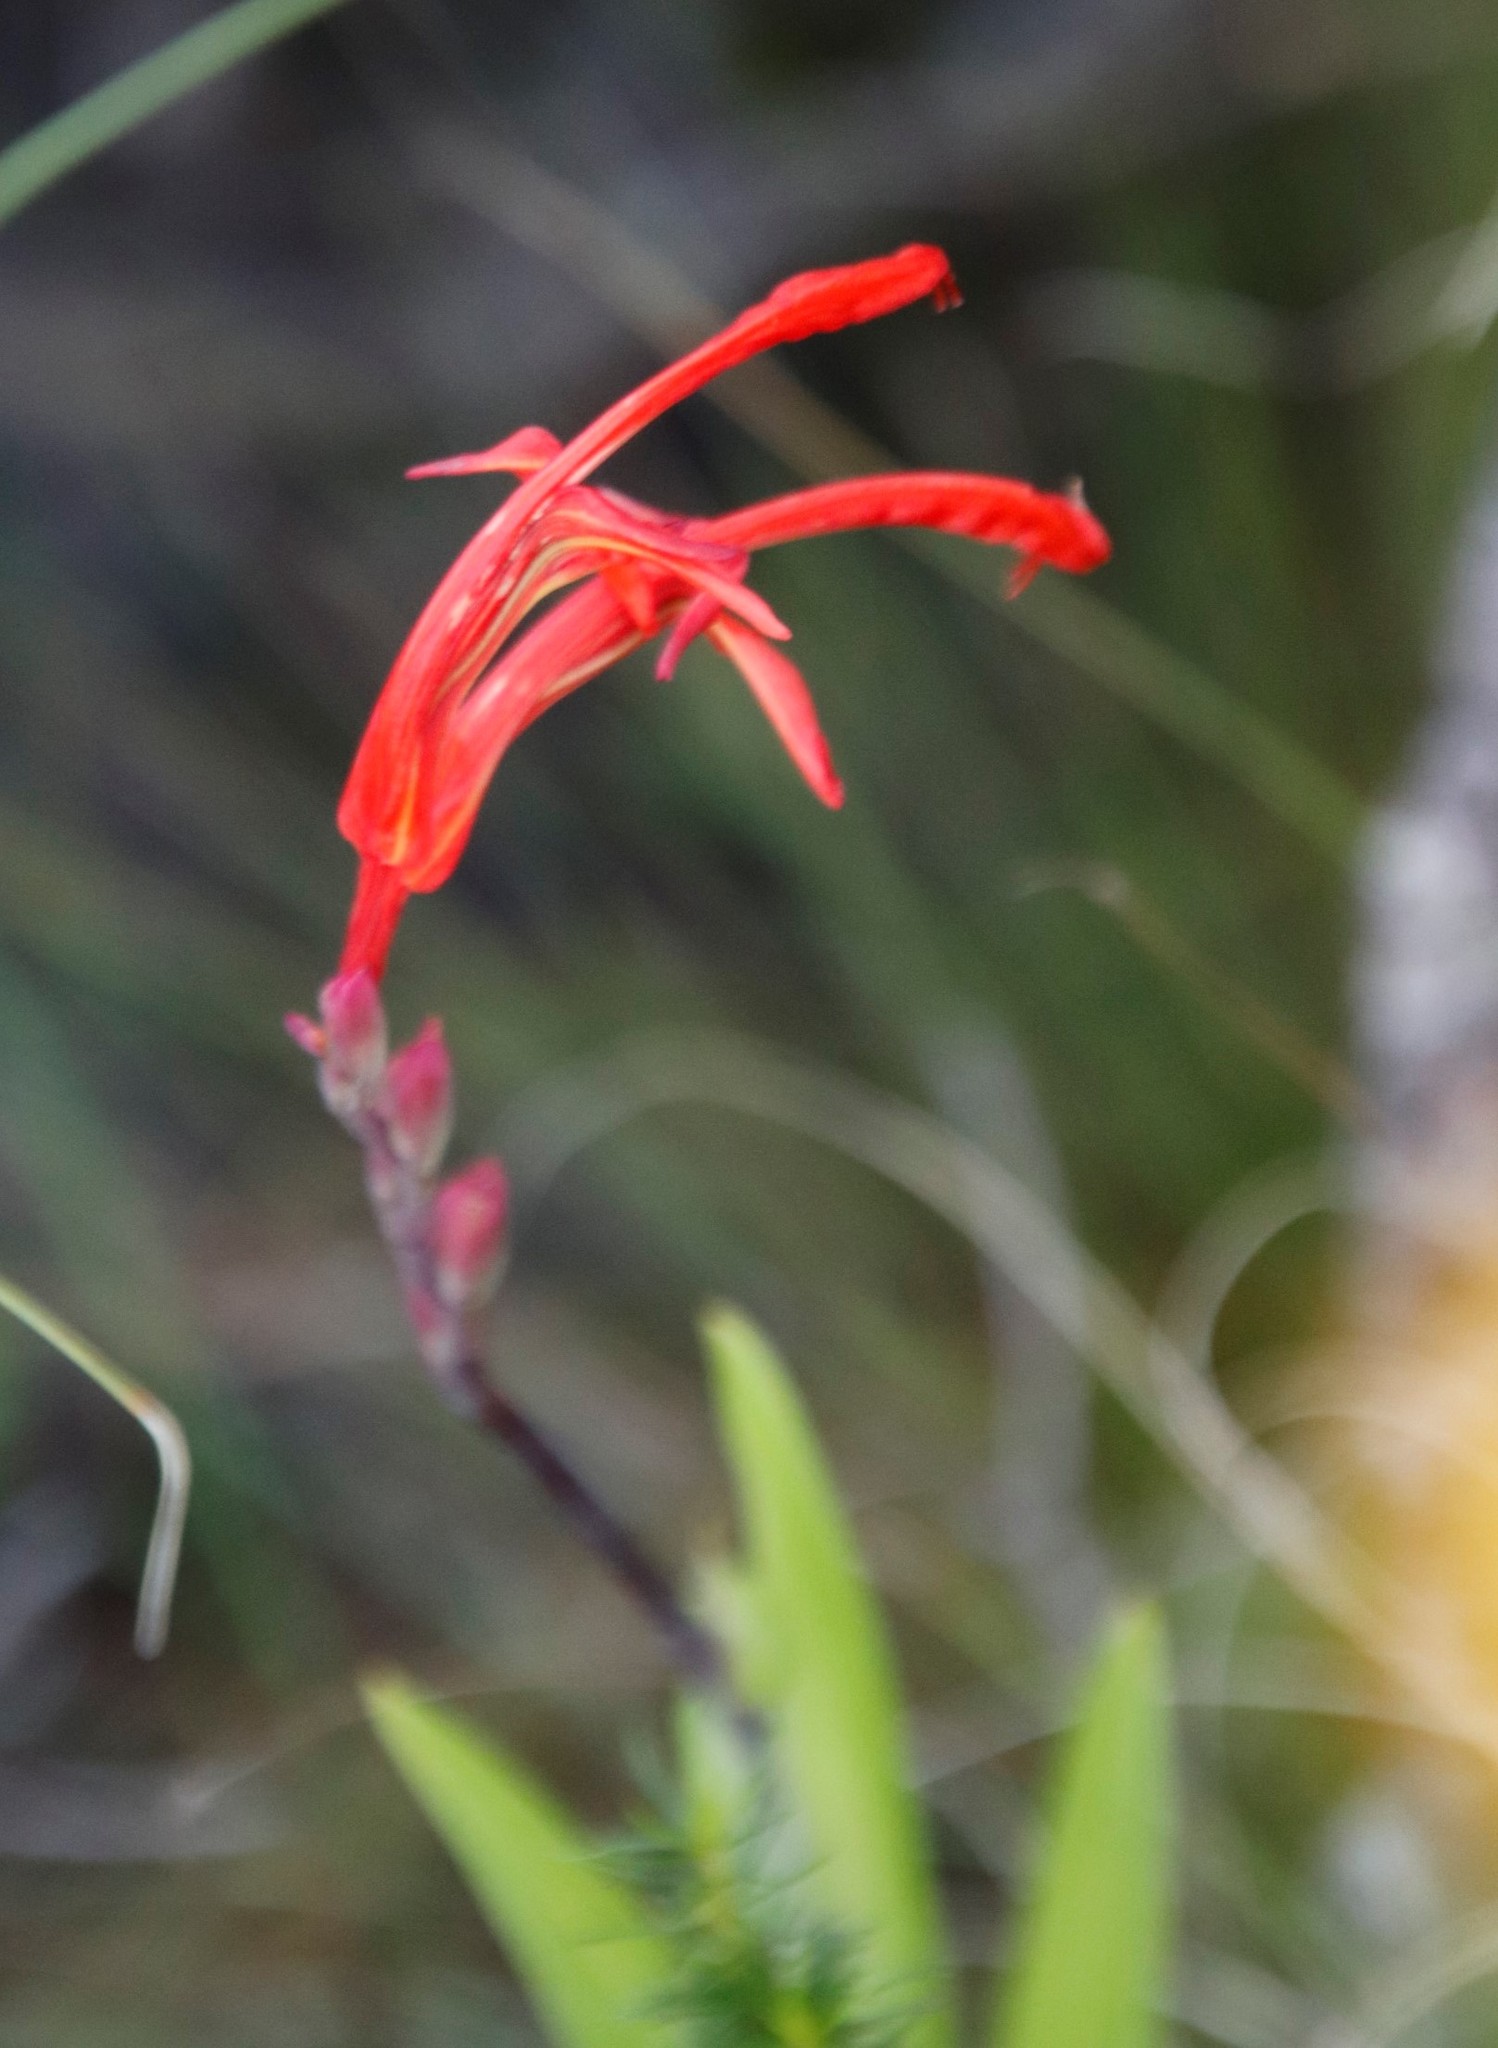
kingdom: Plantae
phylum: Tracheophyta
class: Liliopsida
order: Asparagales
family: Iridaceae
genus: Chasmanthe
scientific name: Chasmanthe aethiopica
